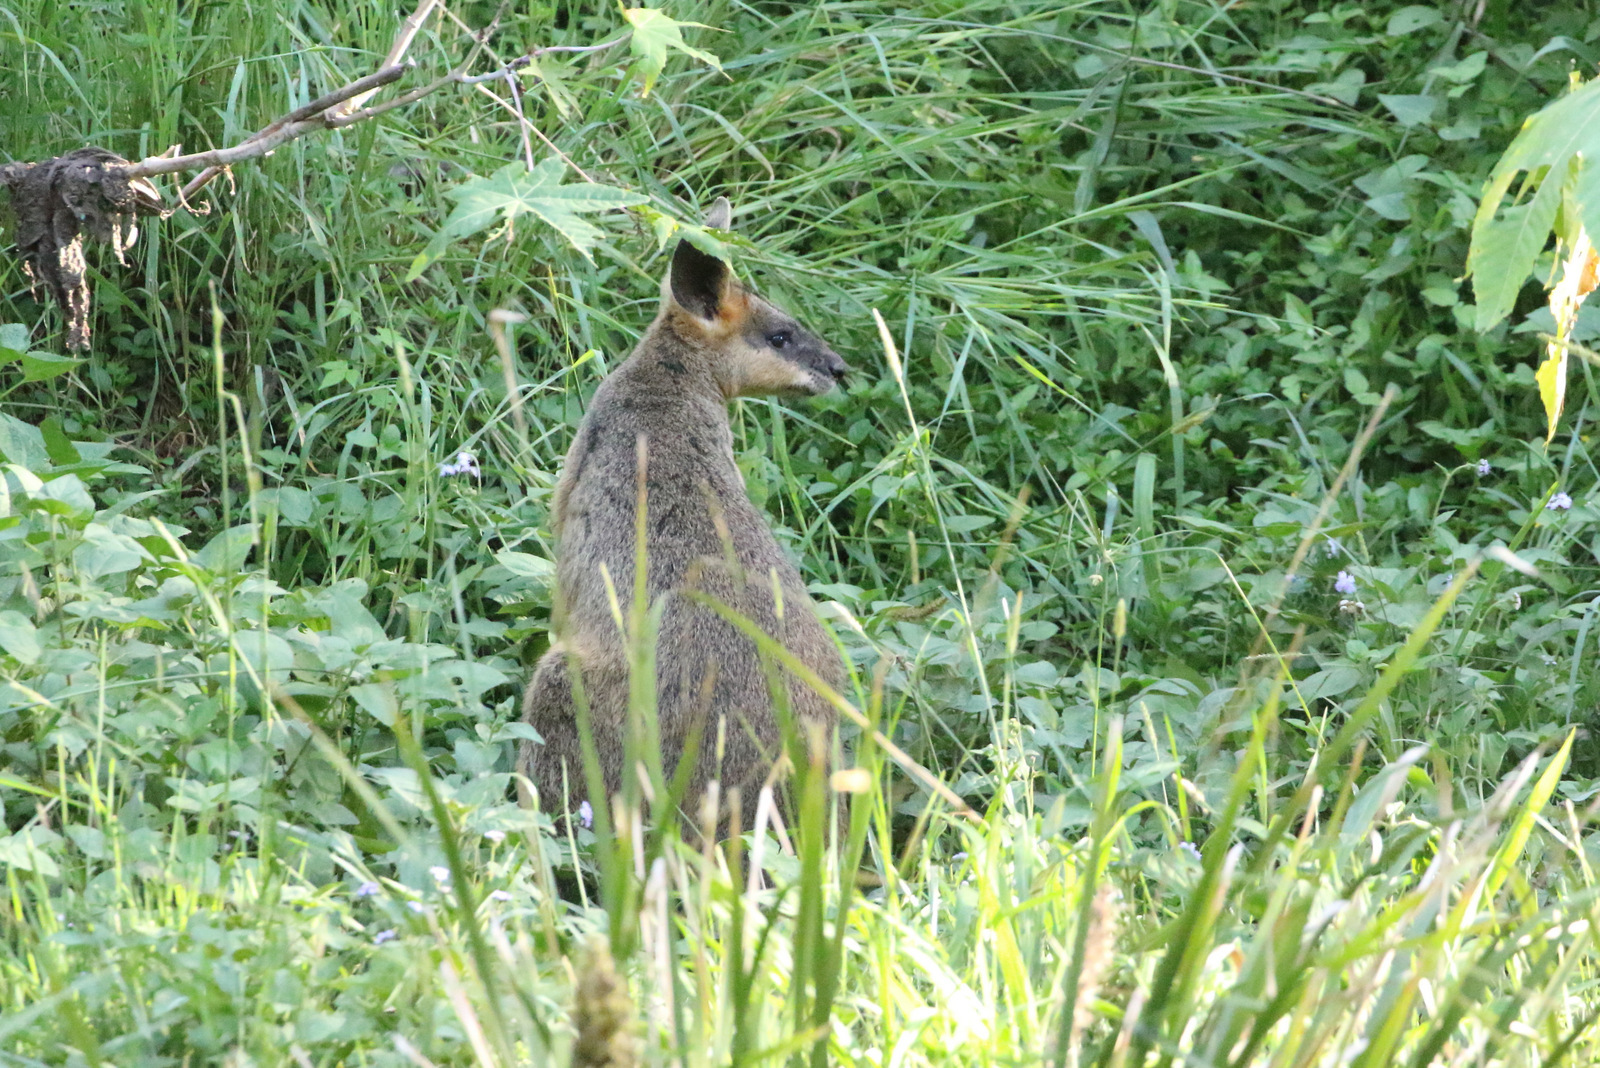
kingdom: Animalia
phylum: Chordata
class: Mammalia
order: Diprotodontia
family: Macropodidae
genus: Wallabia
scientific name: Wallabia bicolor
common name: Swamp wallaby
